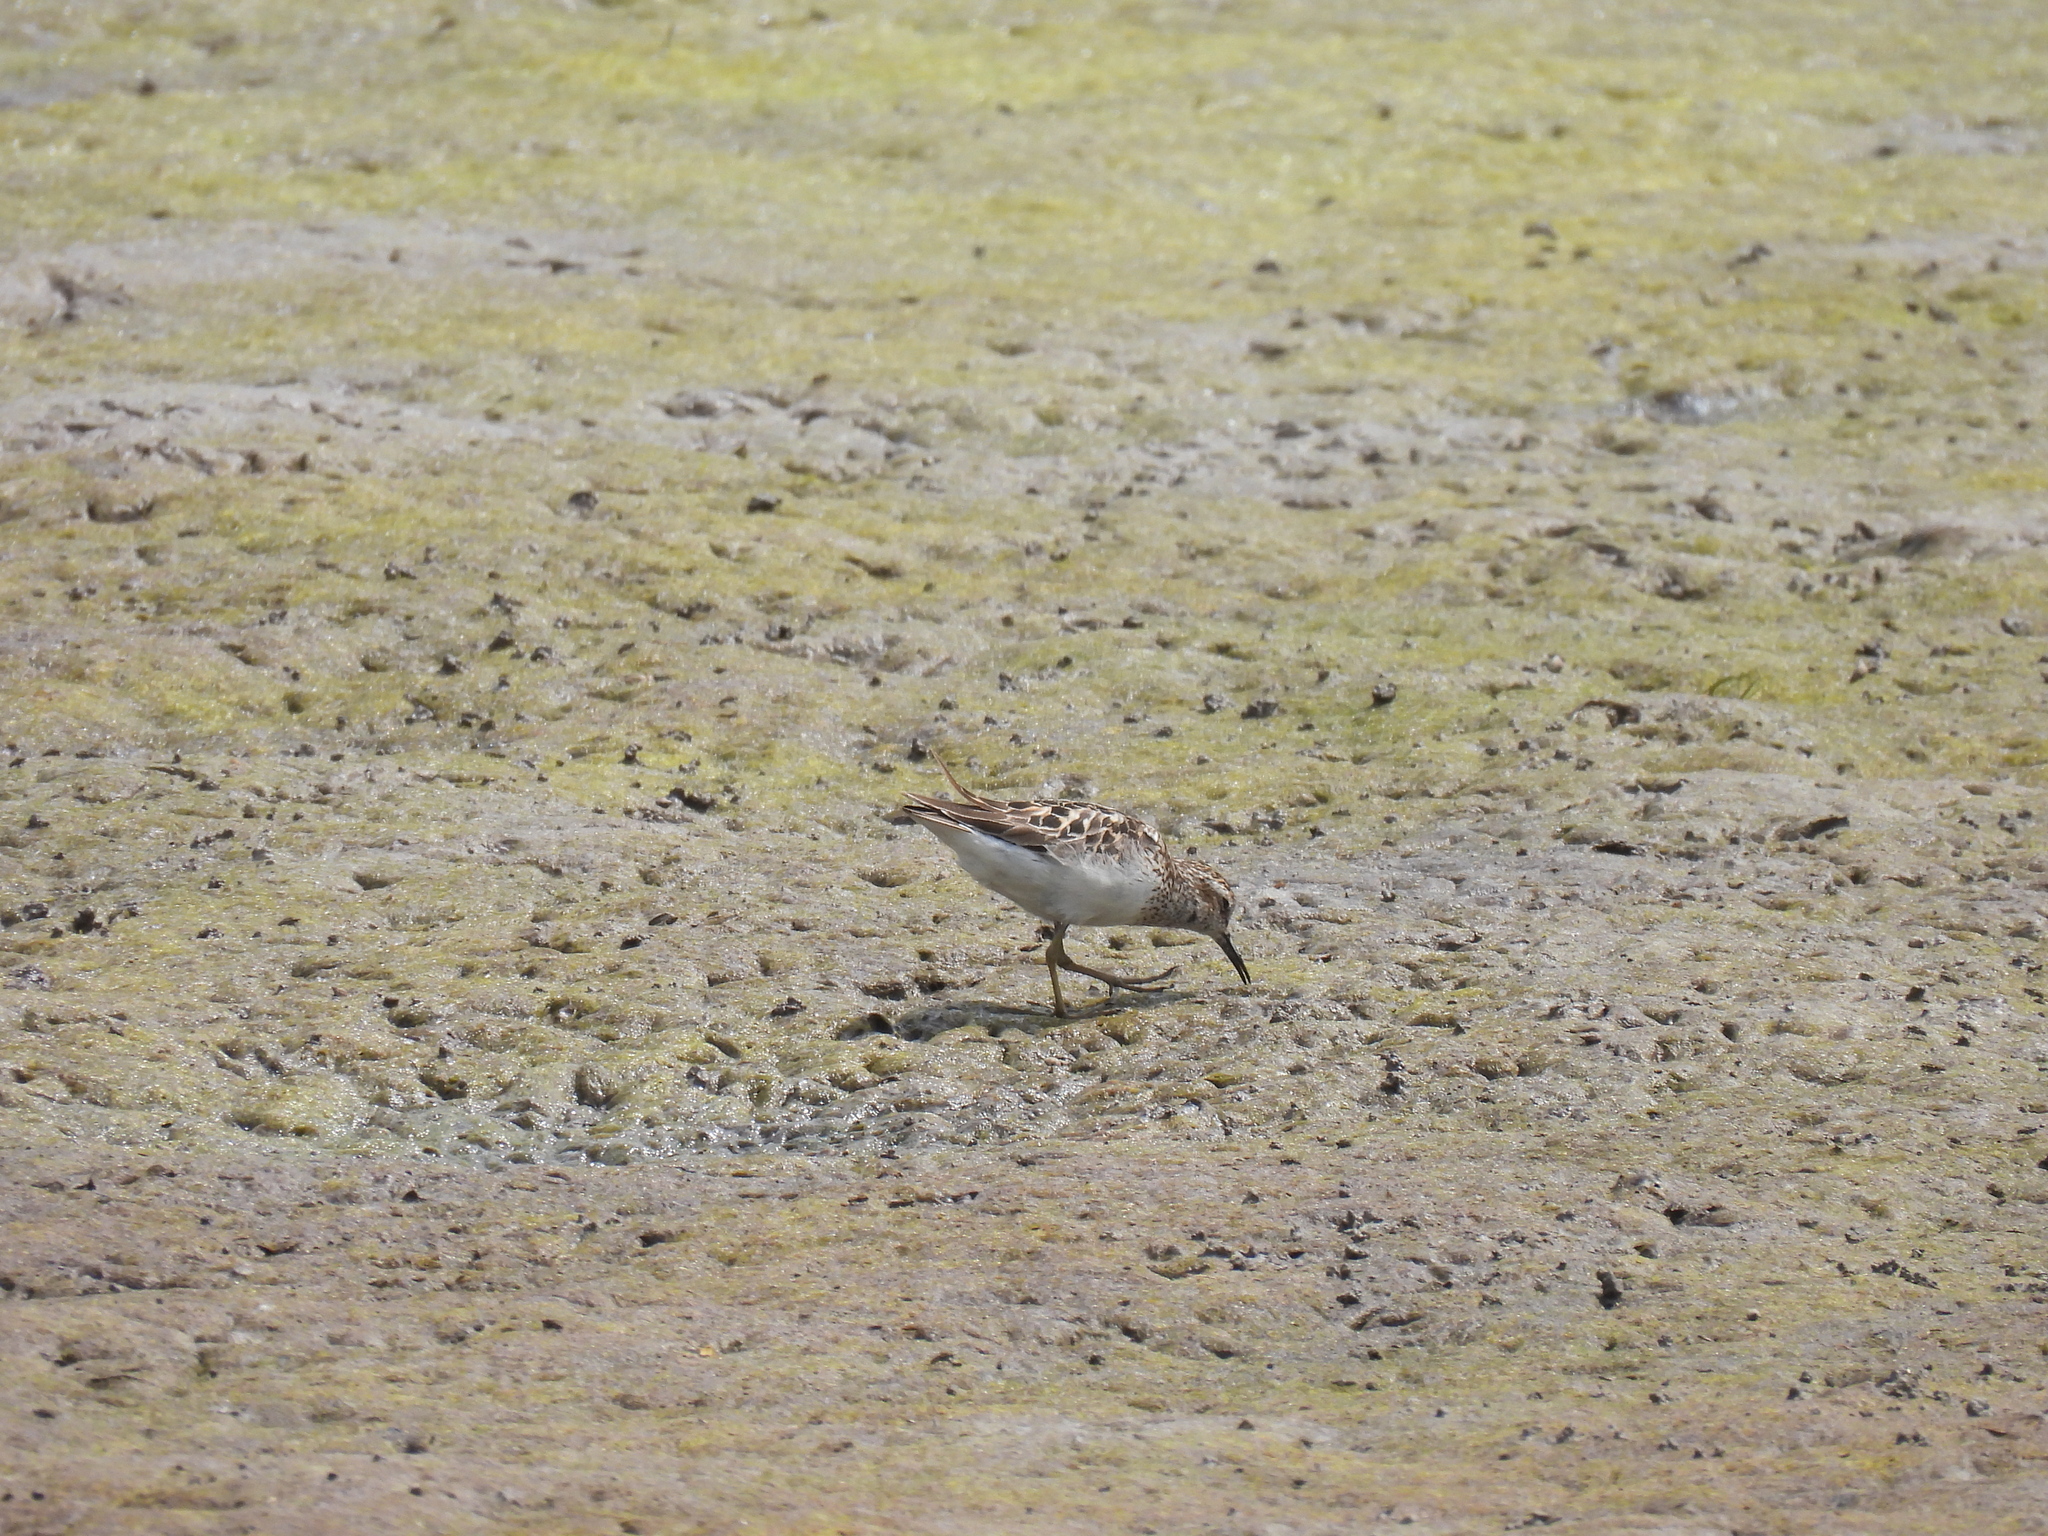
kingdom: Animalia
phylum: Chordata
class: Aves
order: Charadriiformes
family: Scolopacidae
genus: Calidris
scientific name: Calidris minutilla
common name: Least sandpiper
